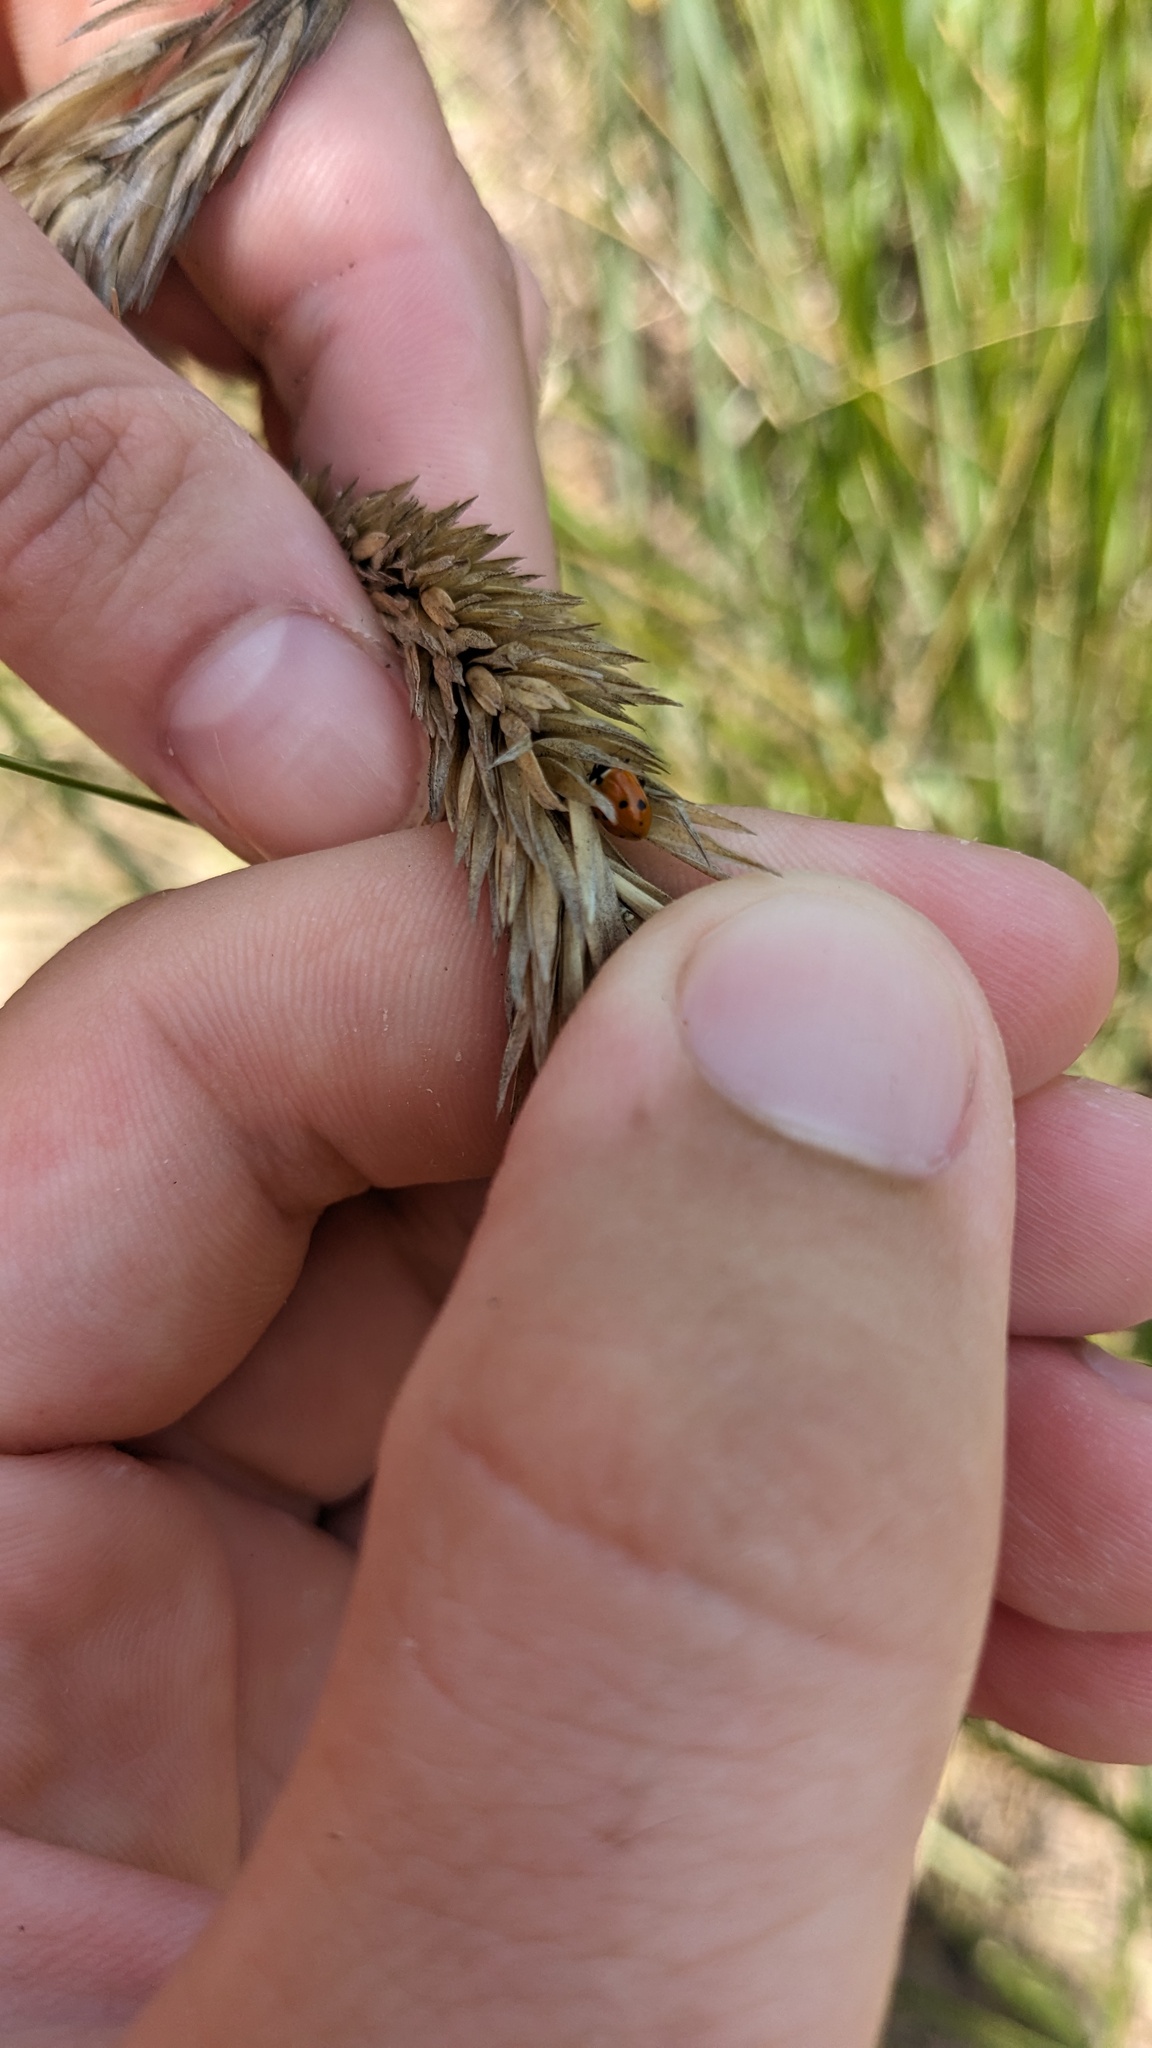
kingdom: Animalia
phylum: Arthropoda
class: Insecta
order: Coleoptera
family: Coccinellidae
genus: Hippodamia
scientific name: Hippodamia
